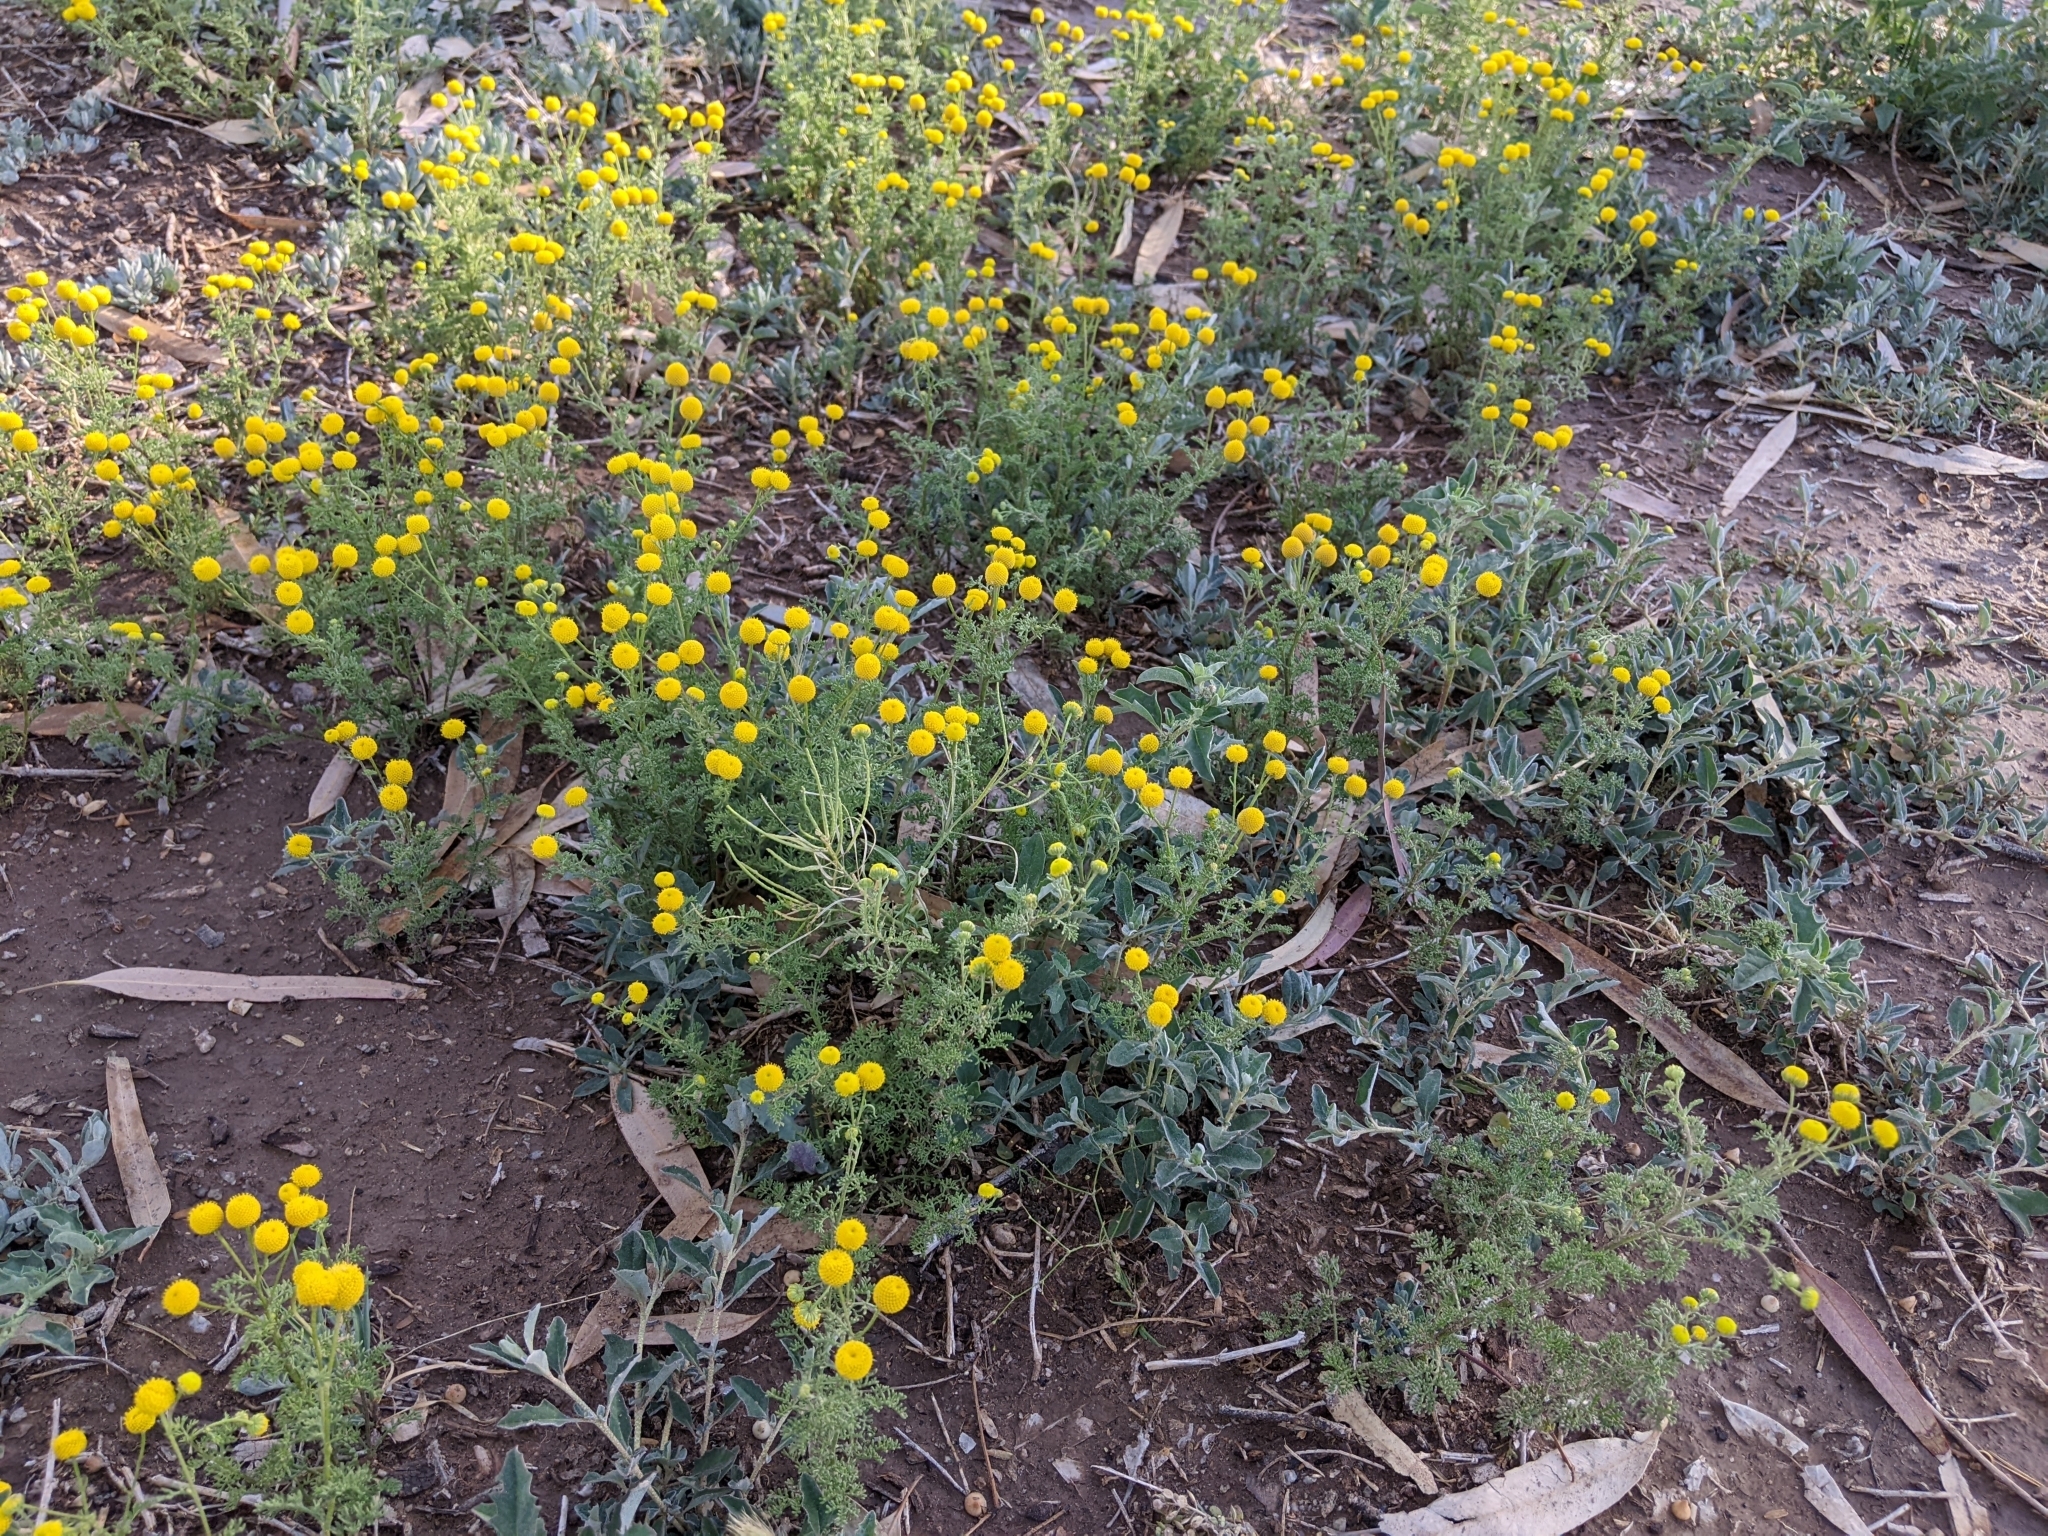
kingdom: Plantae
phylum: Tracheophyta
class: Magnoliopsida
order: Asterales
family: Asteraceae
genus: Oncosiphon
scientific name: Oncosiphon pilulifer
